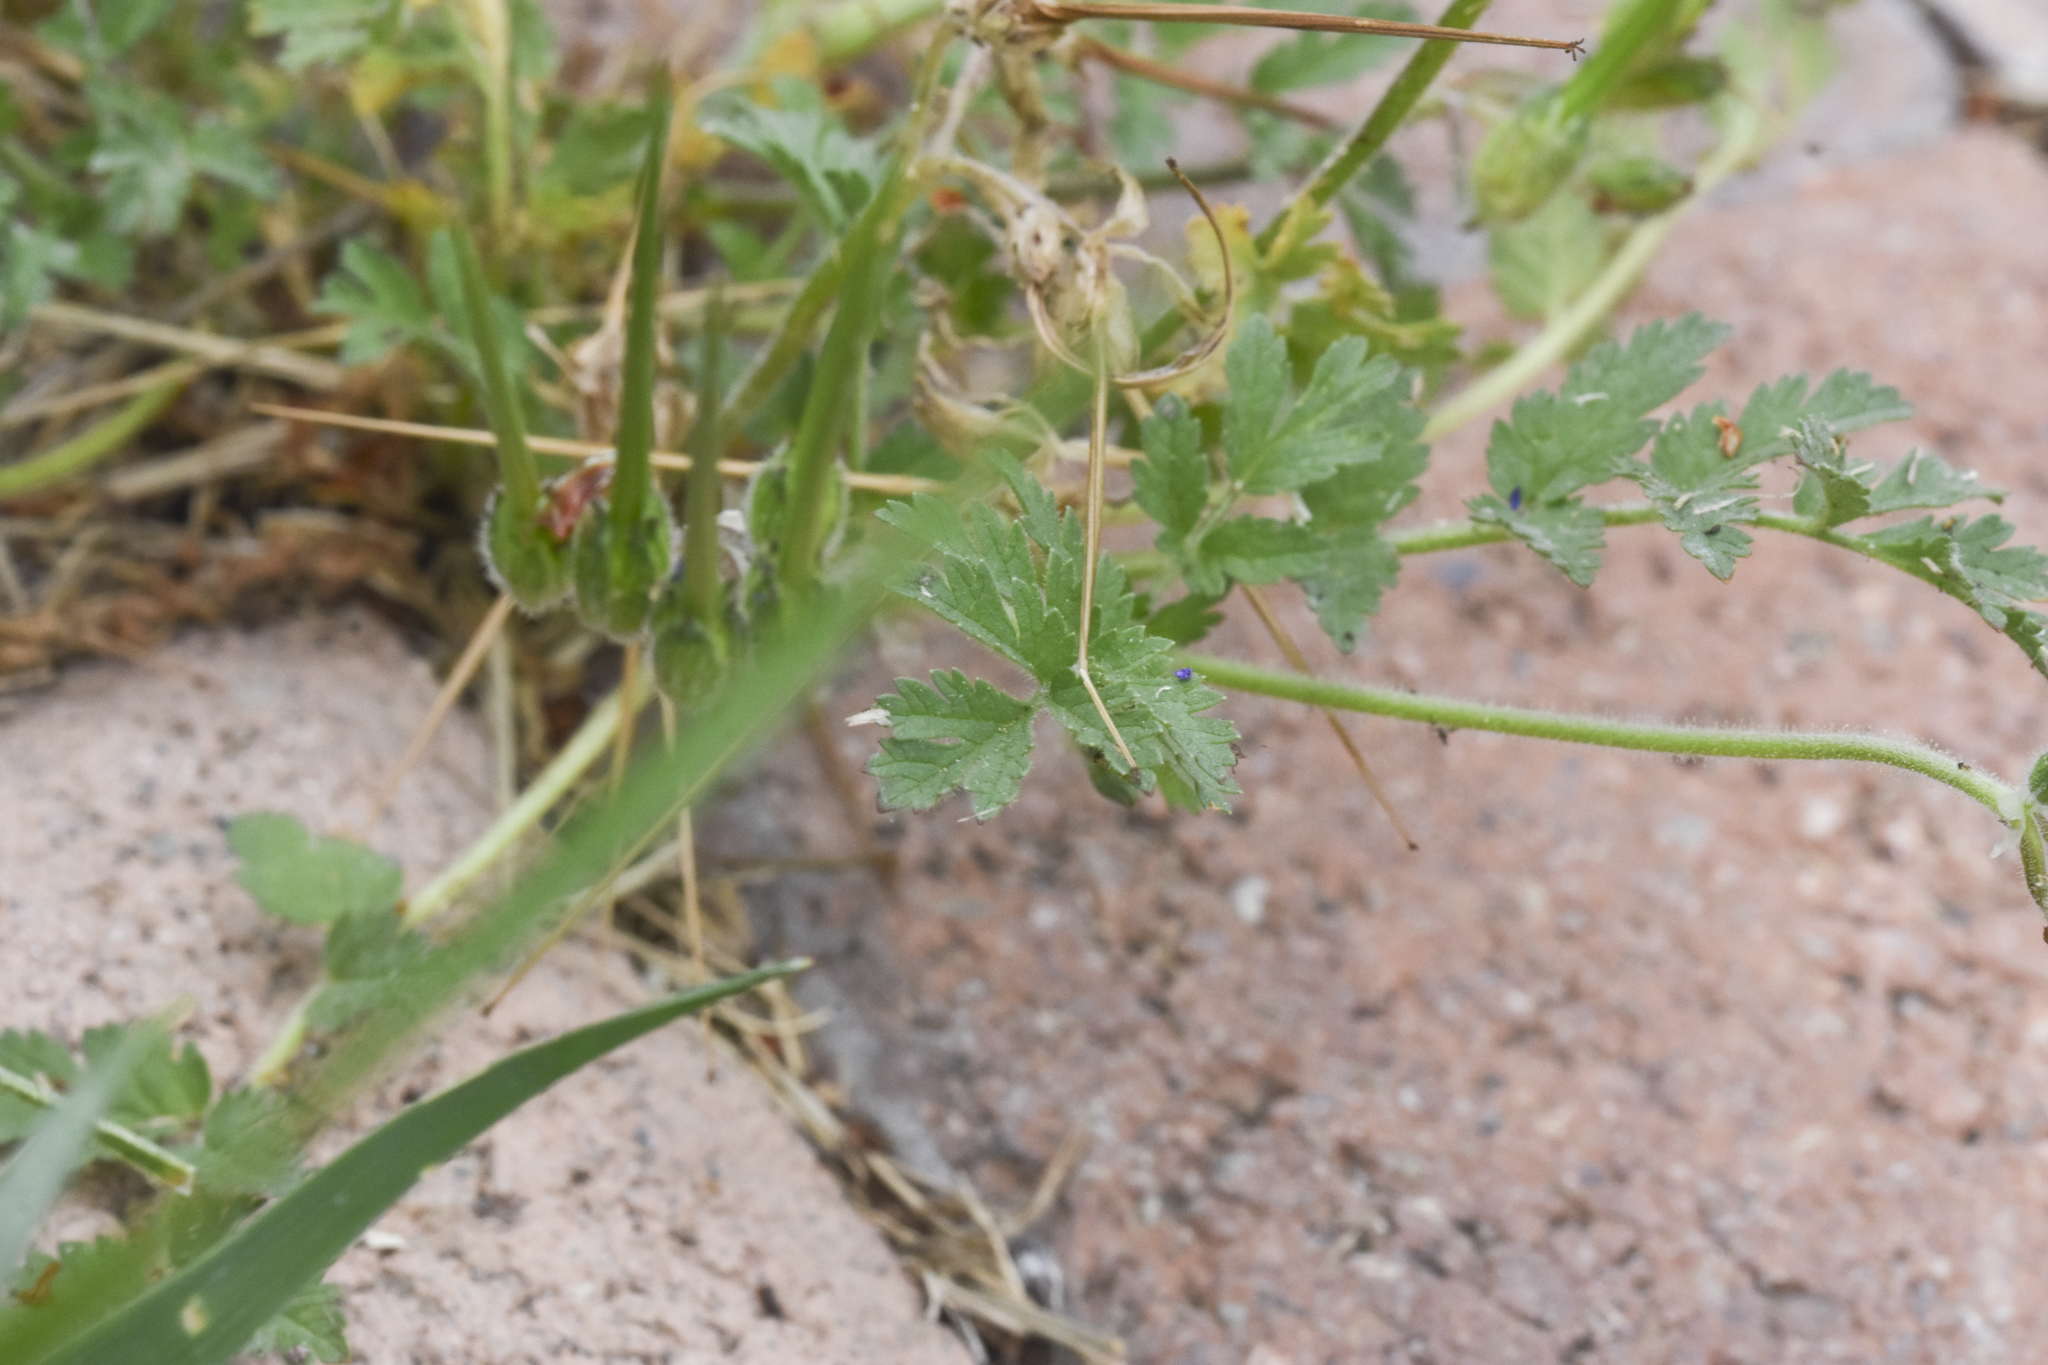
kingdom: Plantae
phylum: Tracheophyta
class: Magnoliopsida
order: Geraniales
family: Geraniaceae
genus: Erodium
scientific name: Erodium moschatum
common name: Musk stork's-bill
